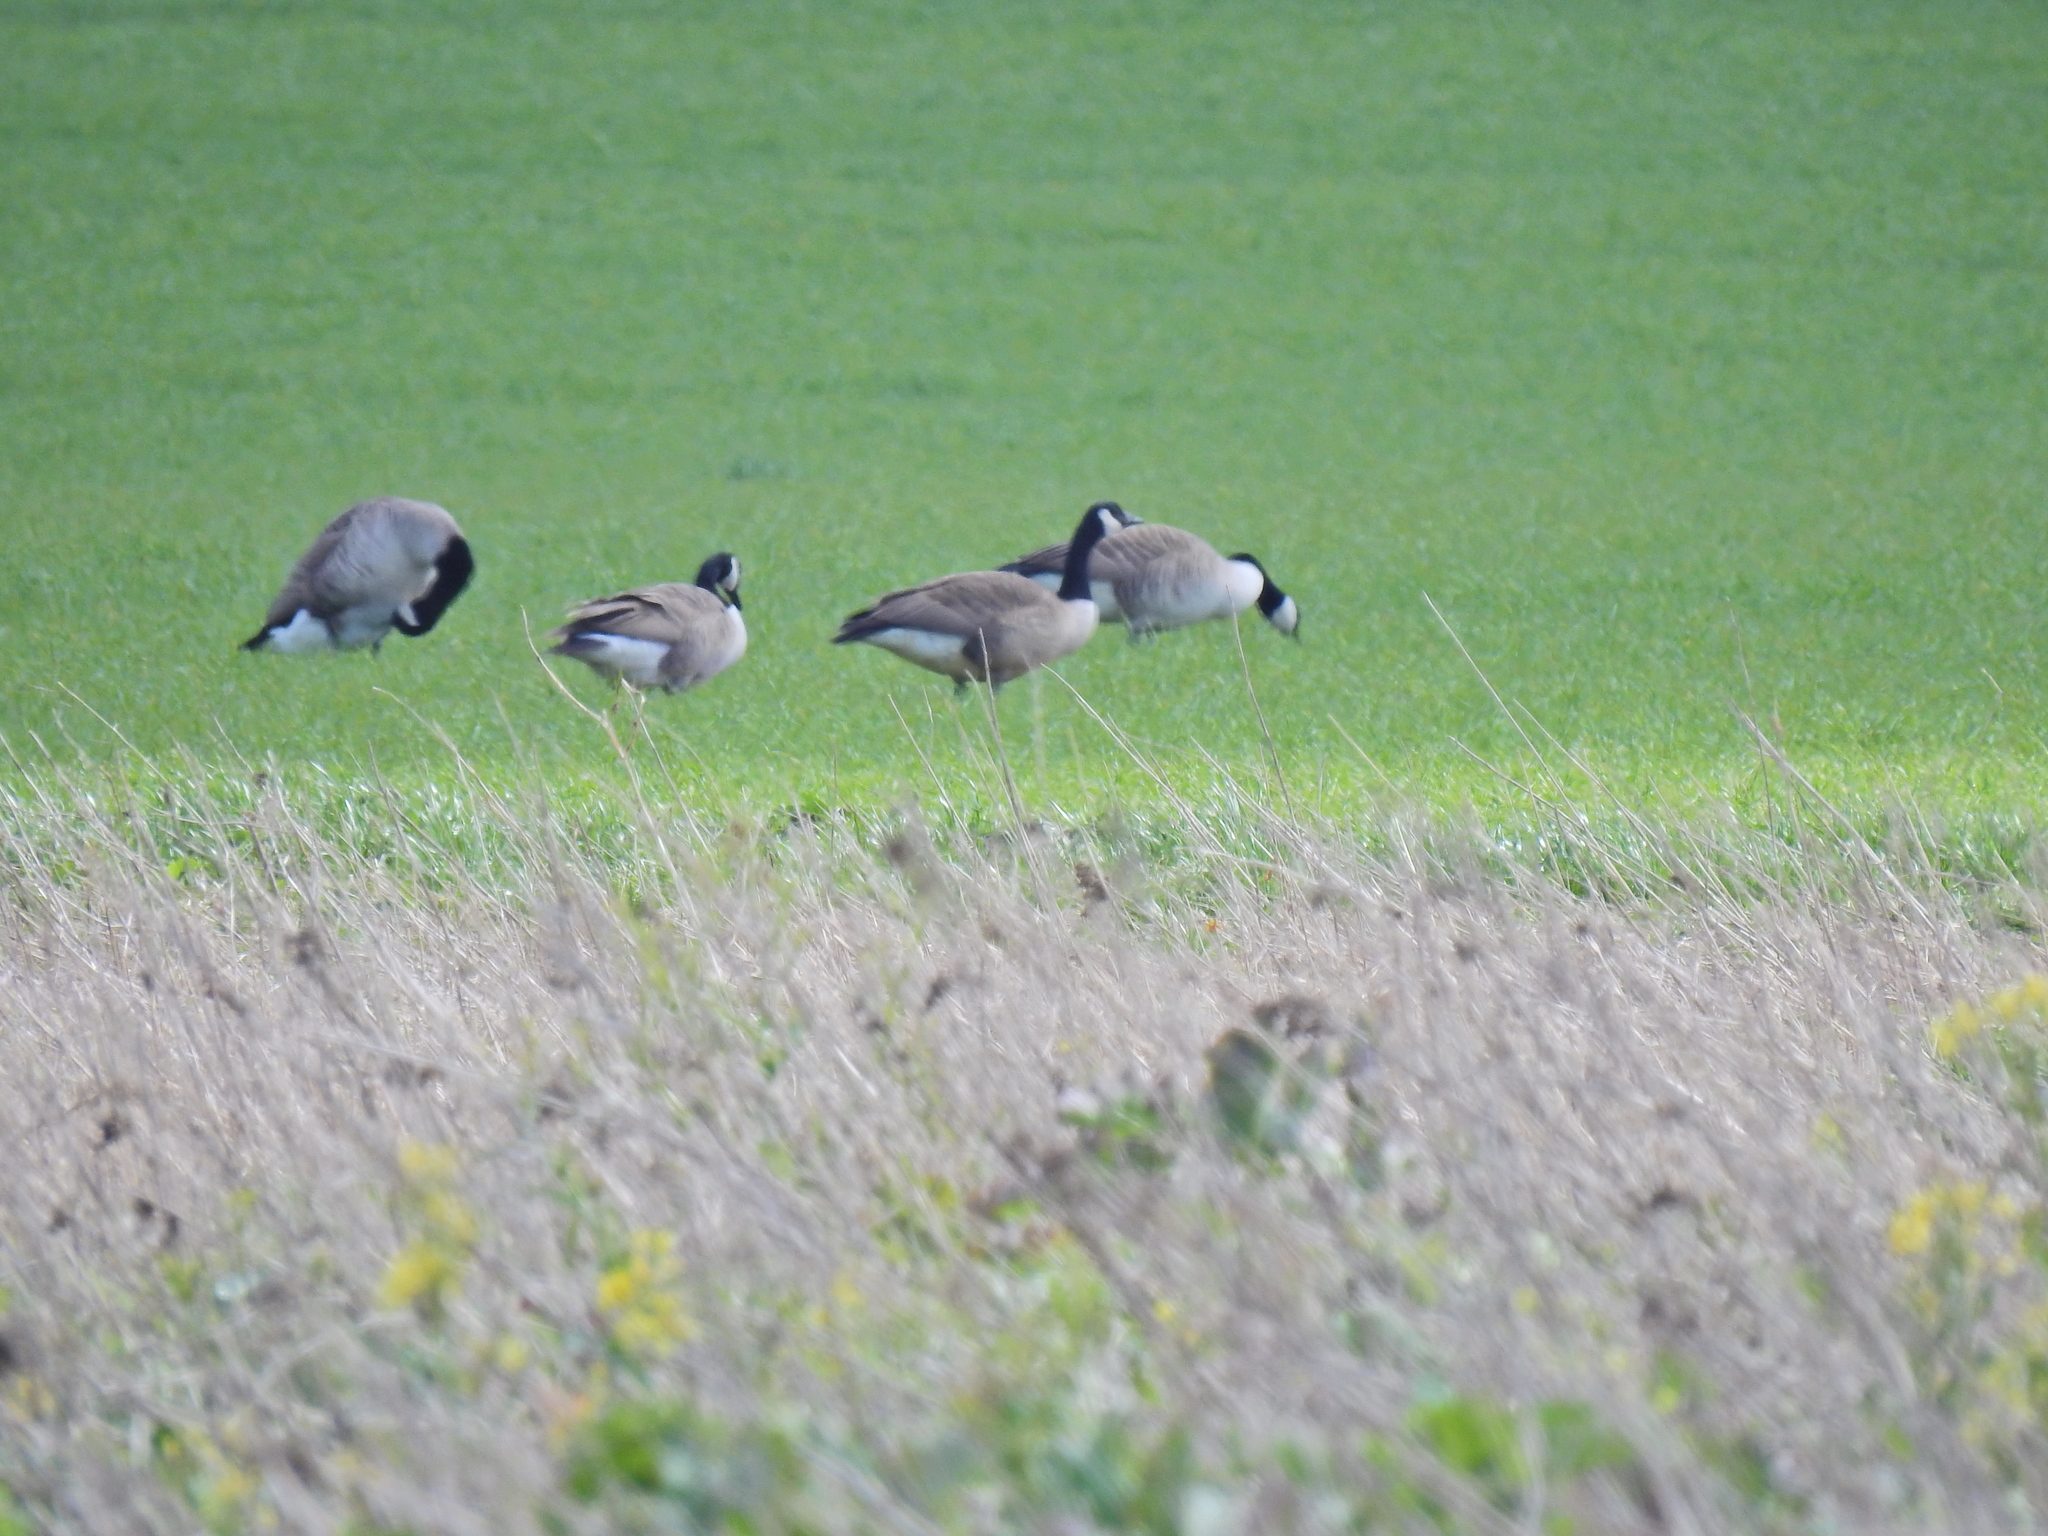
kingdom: Animalia
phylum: Chordata
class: Aves
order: Anseriformes
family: Anatidae
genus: Branta
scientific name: Branta canadensis
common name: Canada goose
